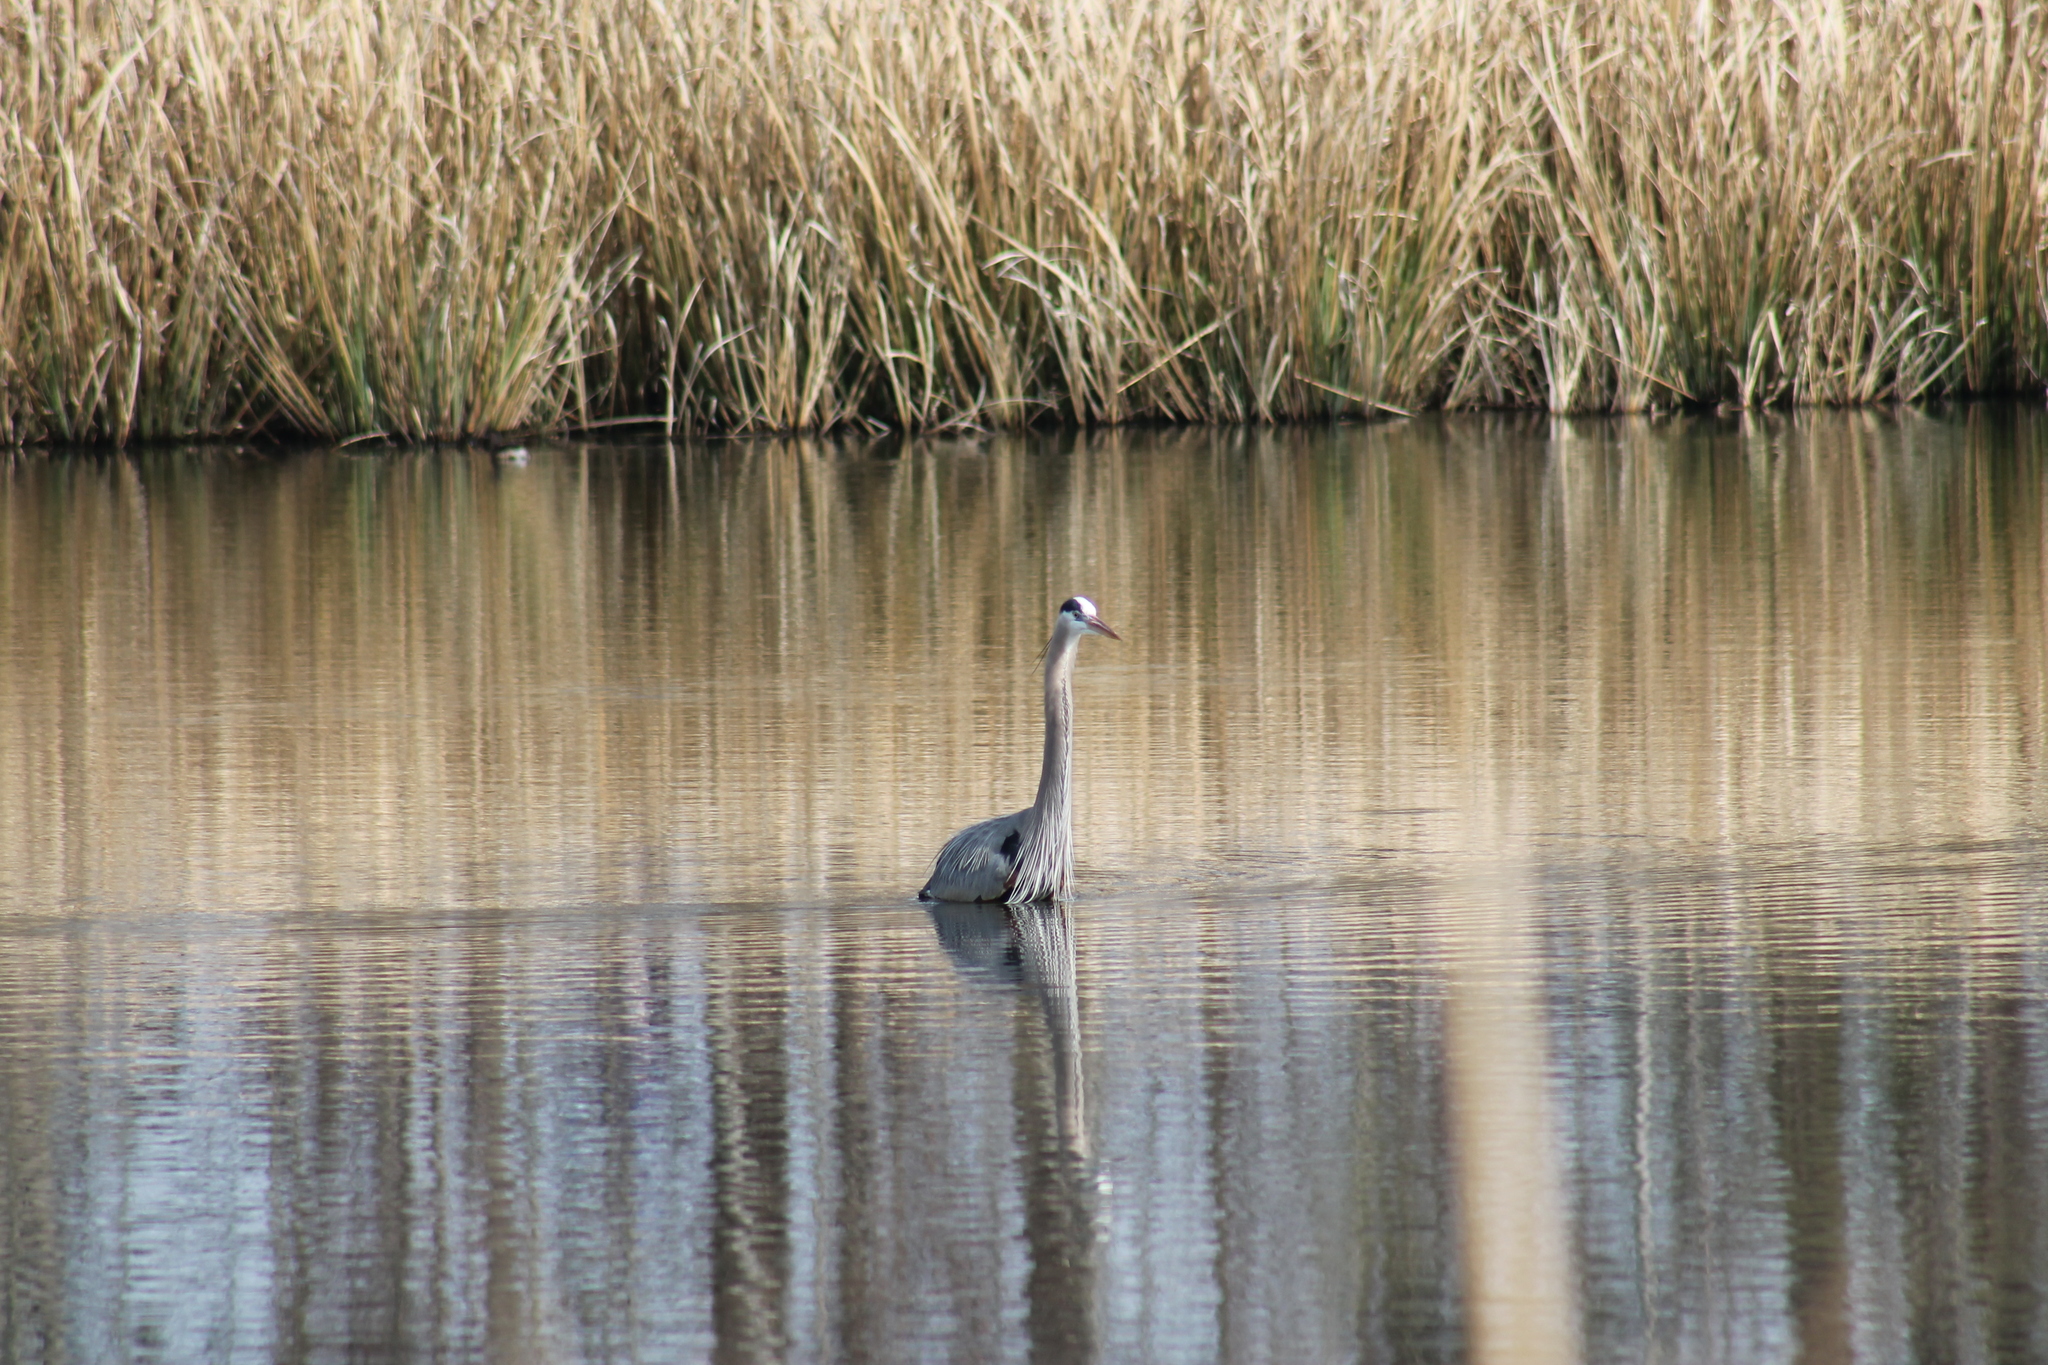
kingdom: Animalia
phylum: Chordata
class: Aves
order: Pelecaniformes
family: Ardeidae
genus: Ardea
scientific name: Ardea herodias
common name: Great blue heron
